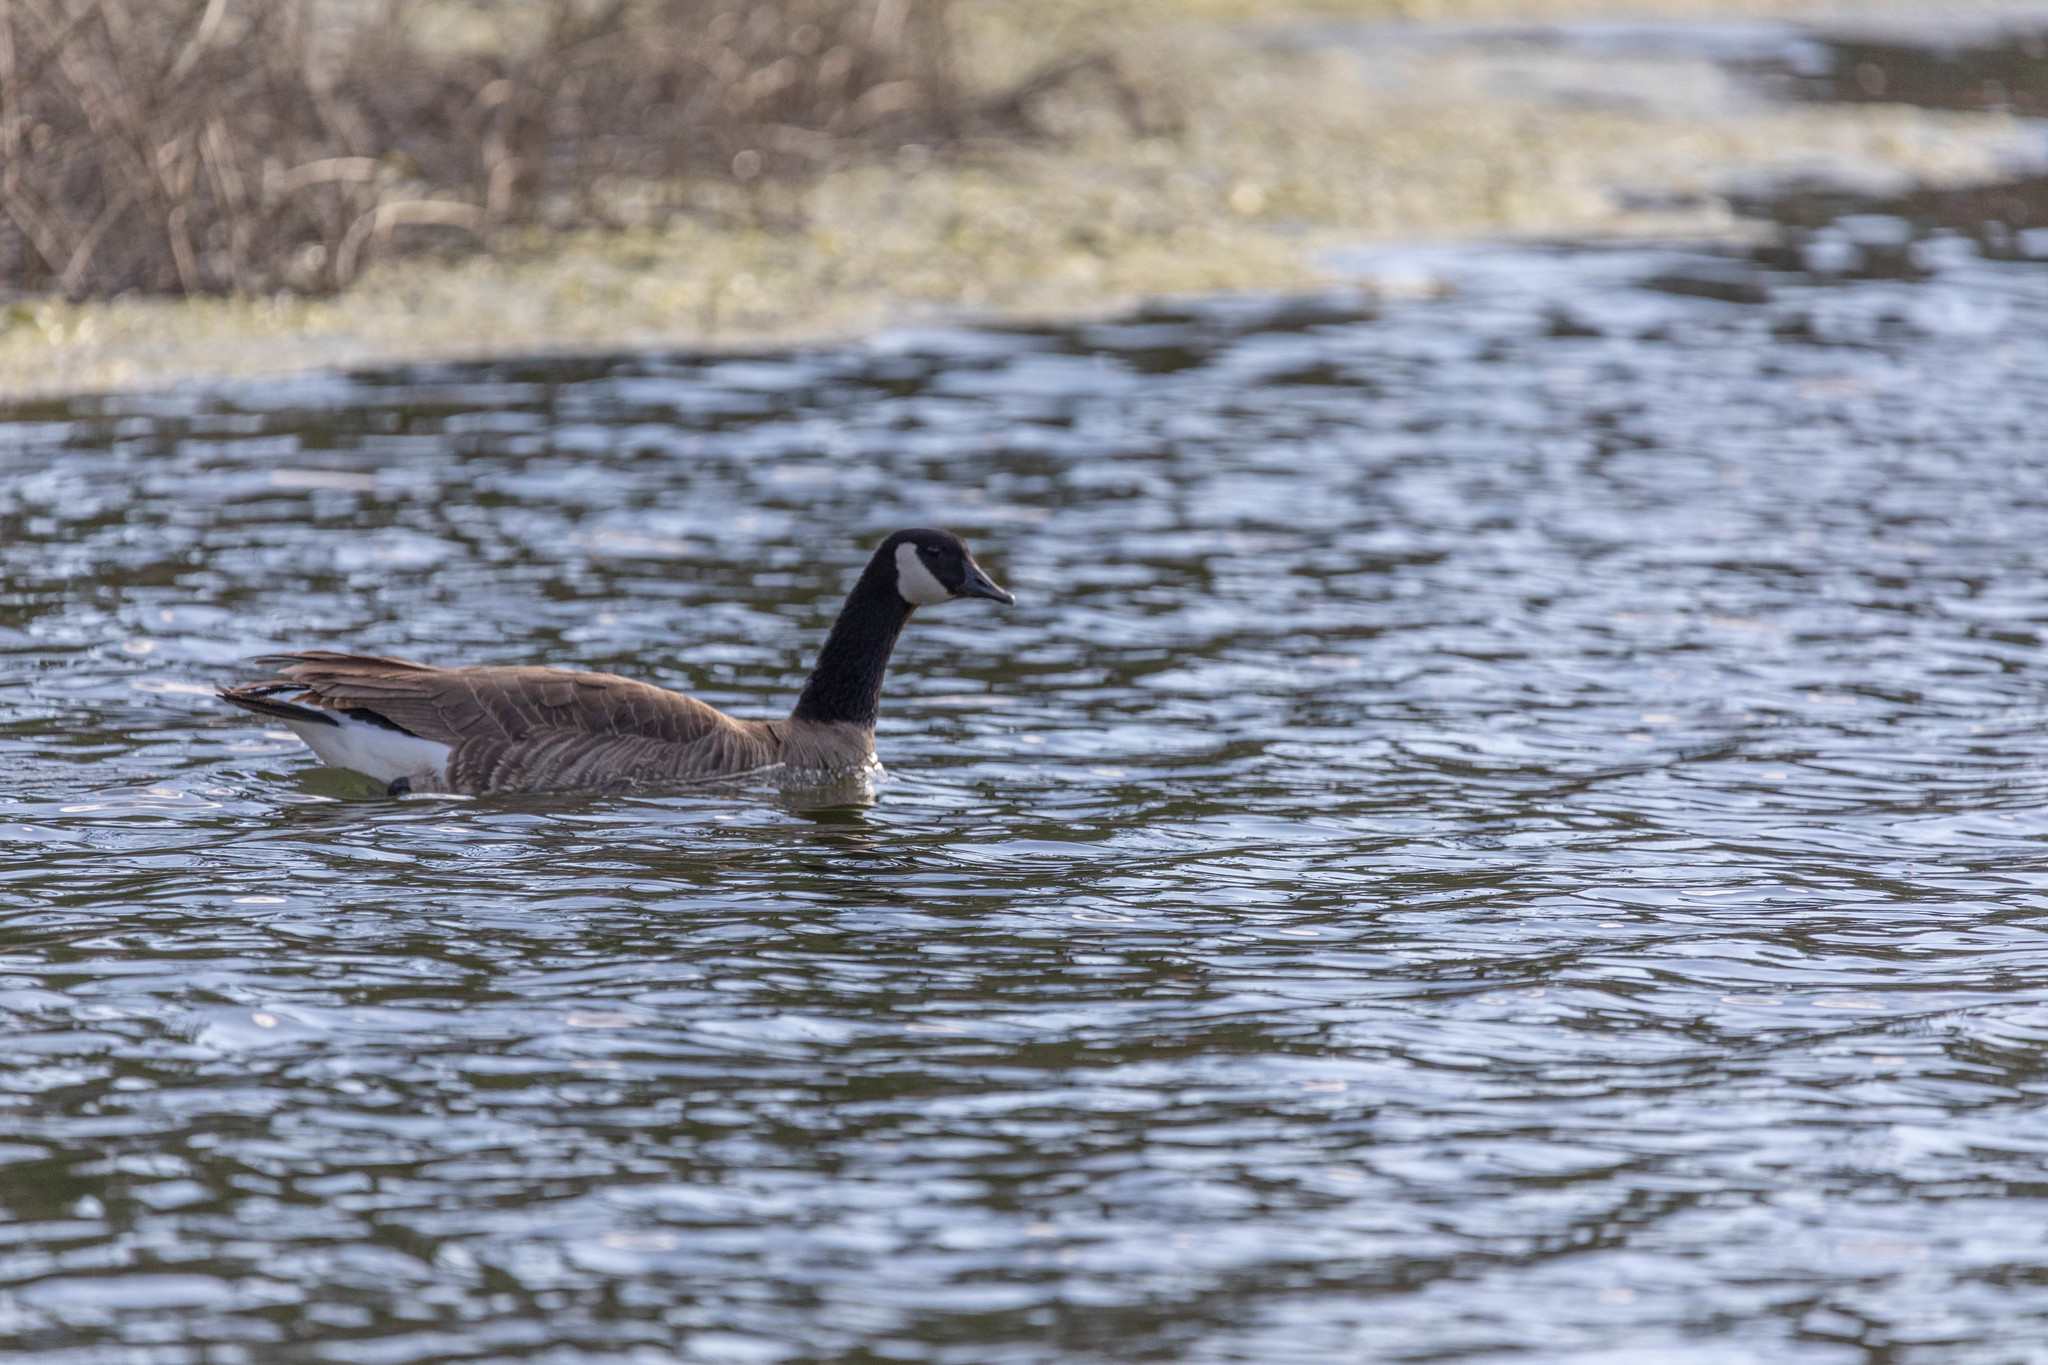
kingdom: Animalia
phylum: Chordata
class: Aves
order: Anseriformes
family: Anatidae
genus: Branta
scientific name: Branta canadensis
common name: Canada goose
